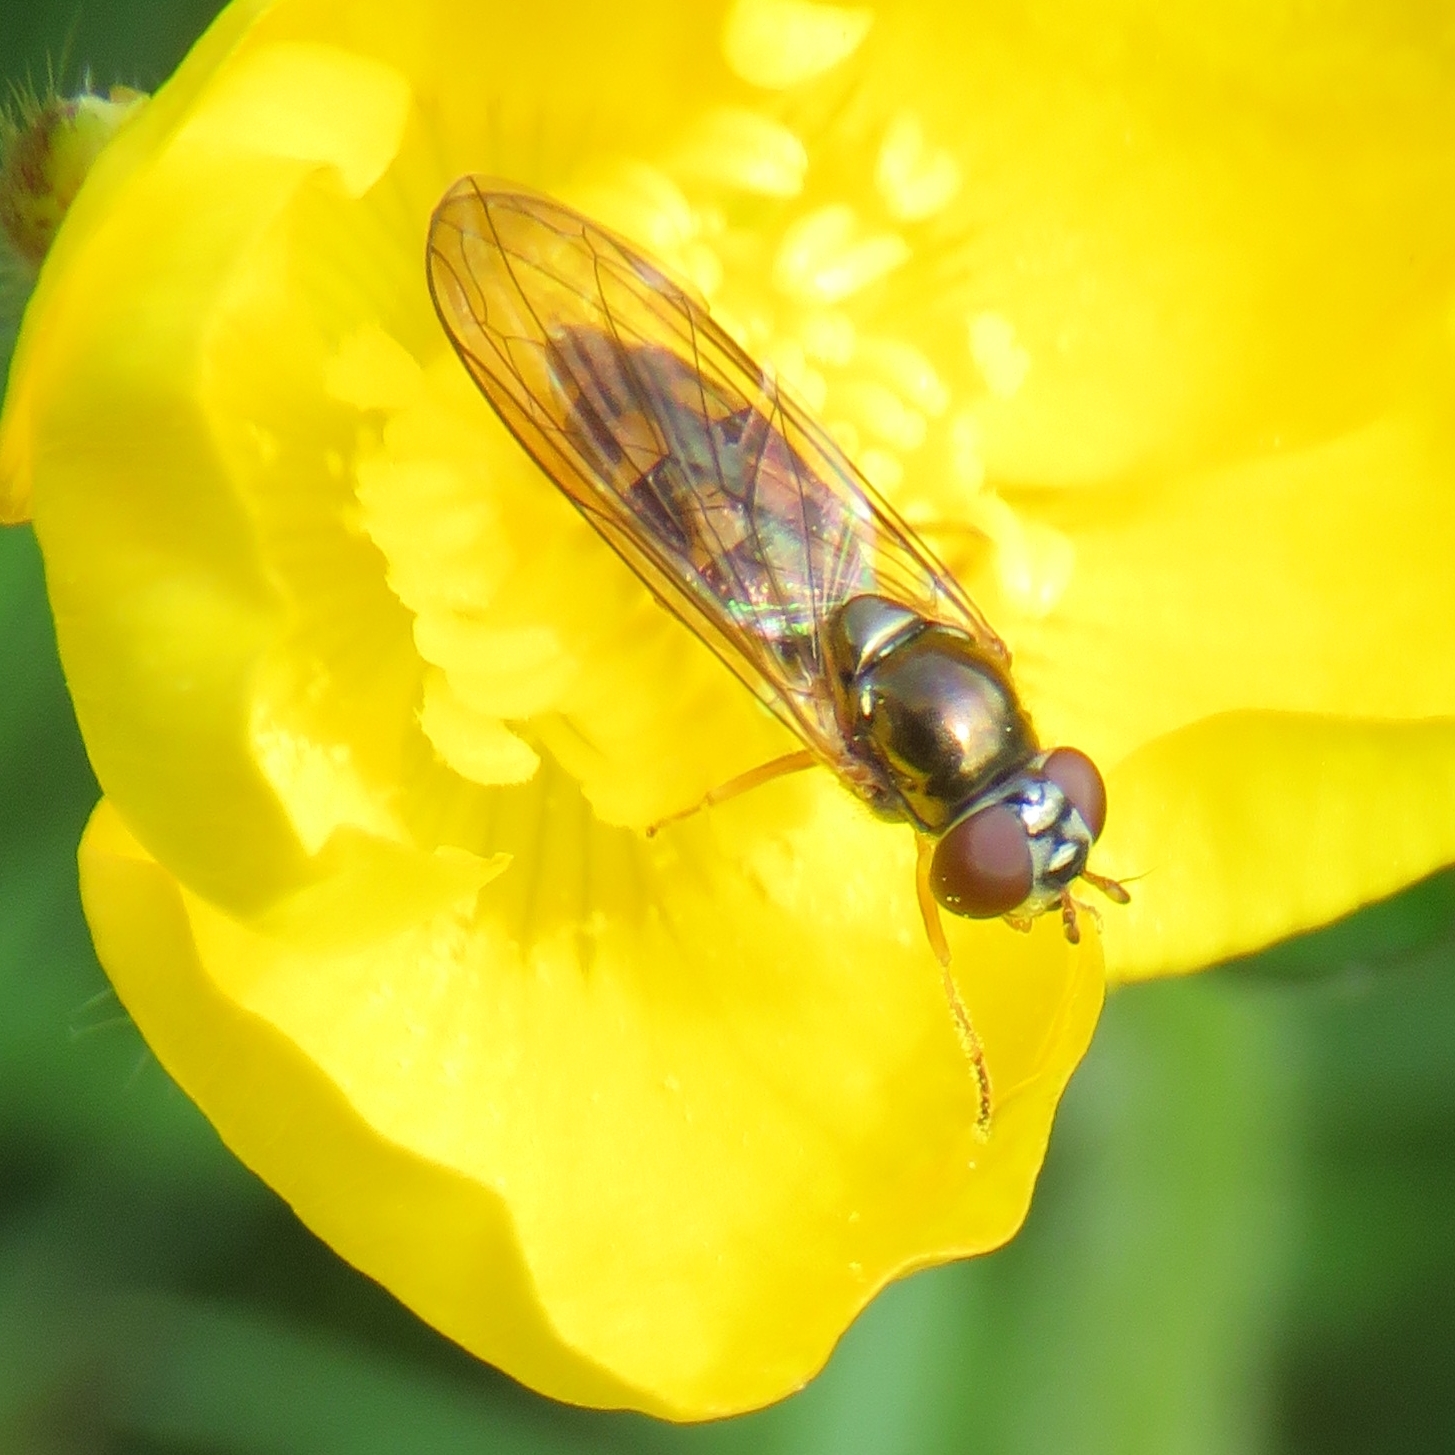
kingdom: Animalia
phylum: Arthropoda
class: Insecta
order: Diptera
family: Syrphidae
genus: Melanostoma
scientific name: Melanostoma scalare
